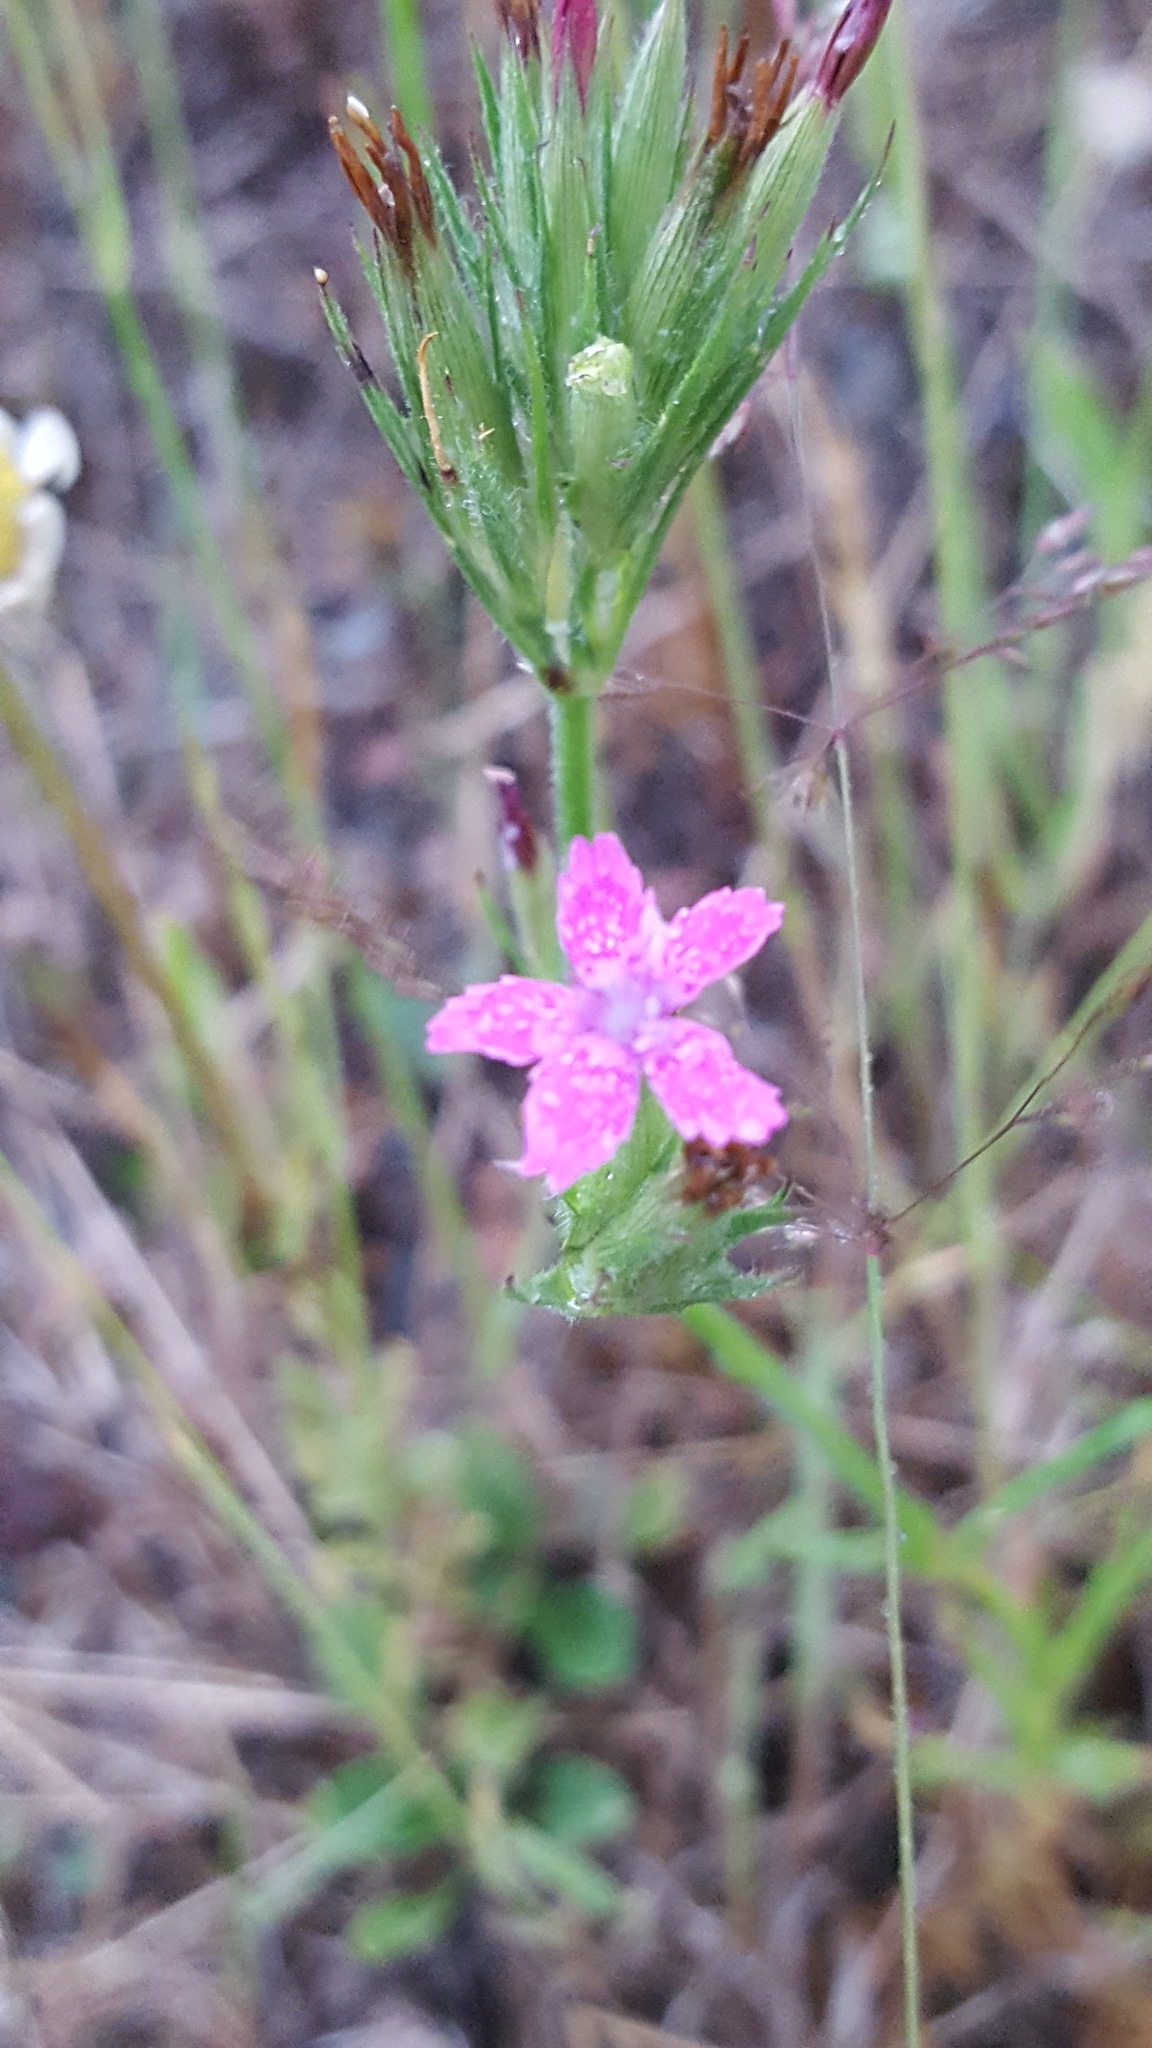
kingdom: Plantae
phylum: Tracheophyta
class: Magnoliopsida
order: Caryophyllales
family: Caryophyllaceae
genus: Dianthus
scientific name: Dianthus armeria
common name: Deptford pink
